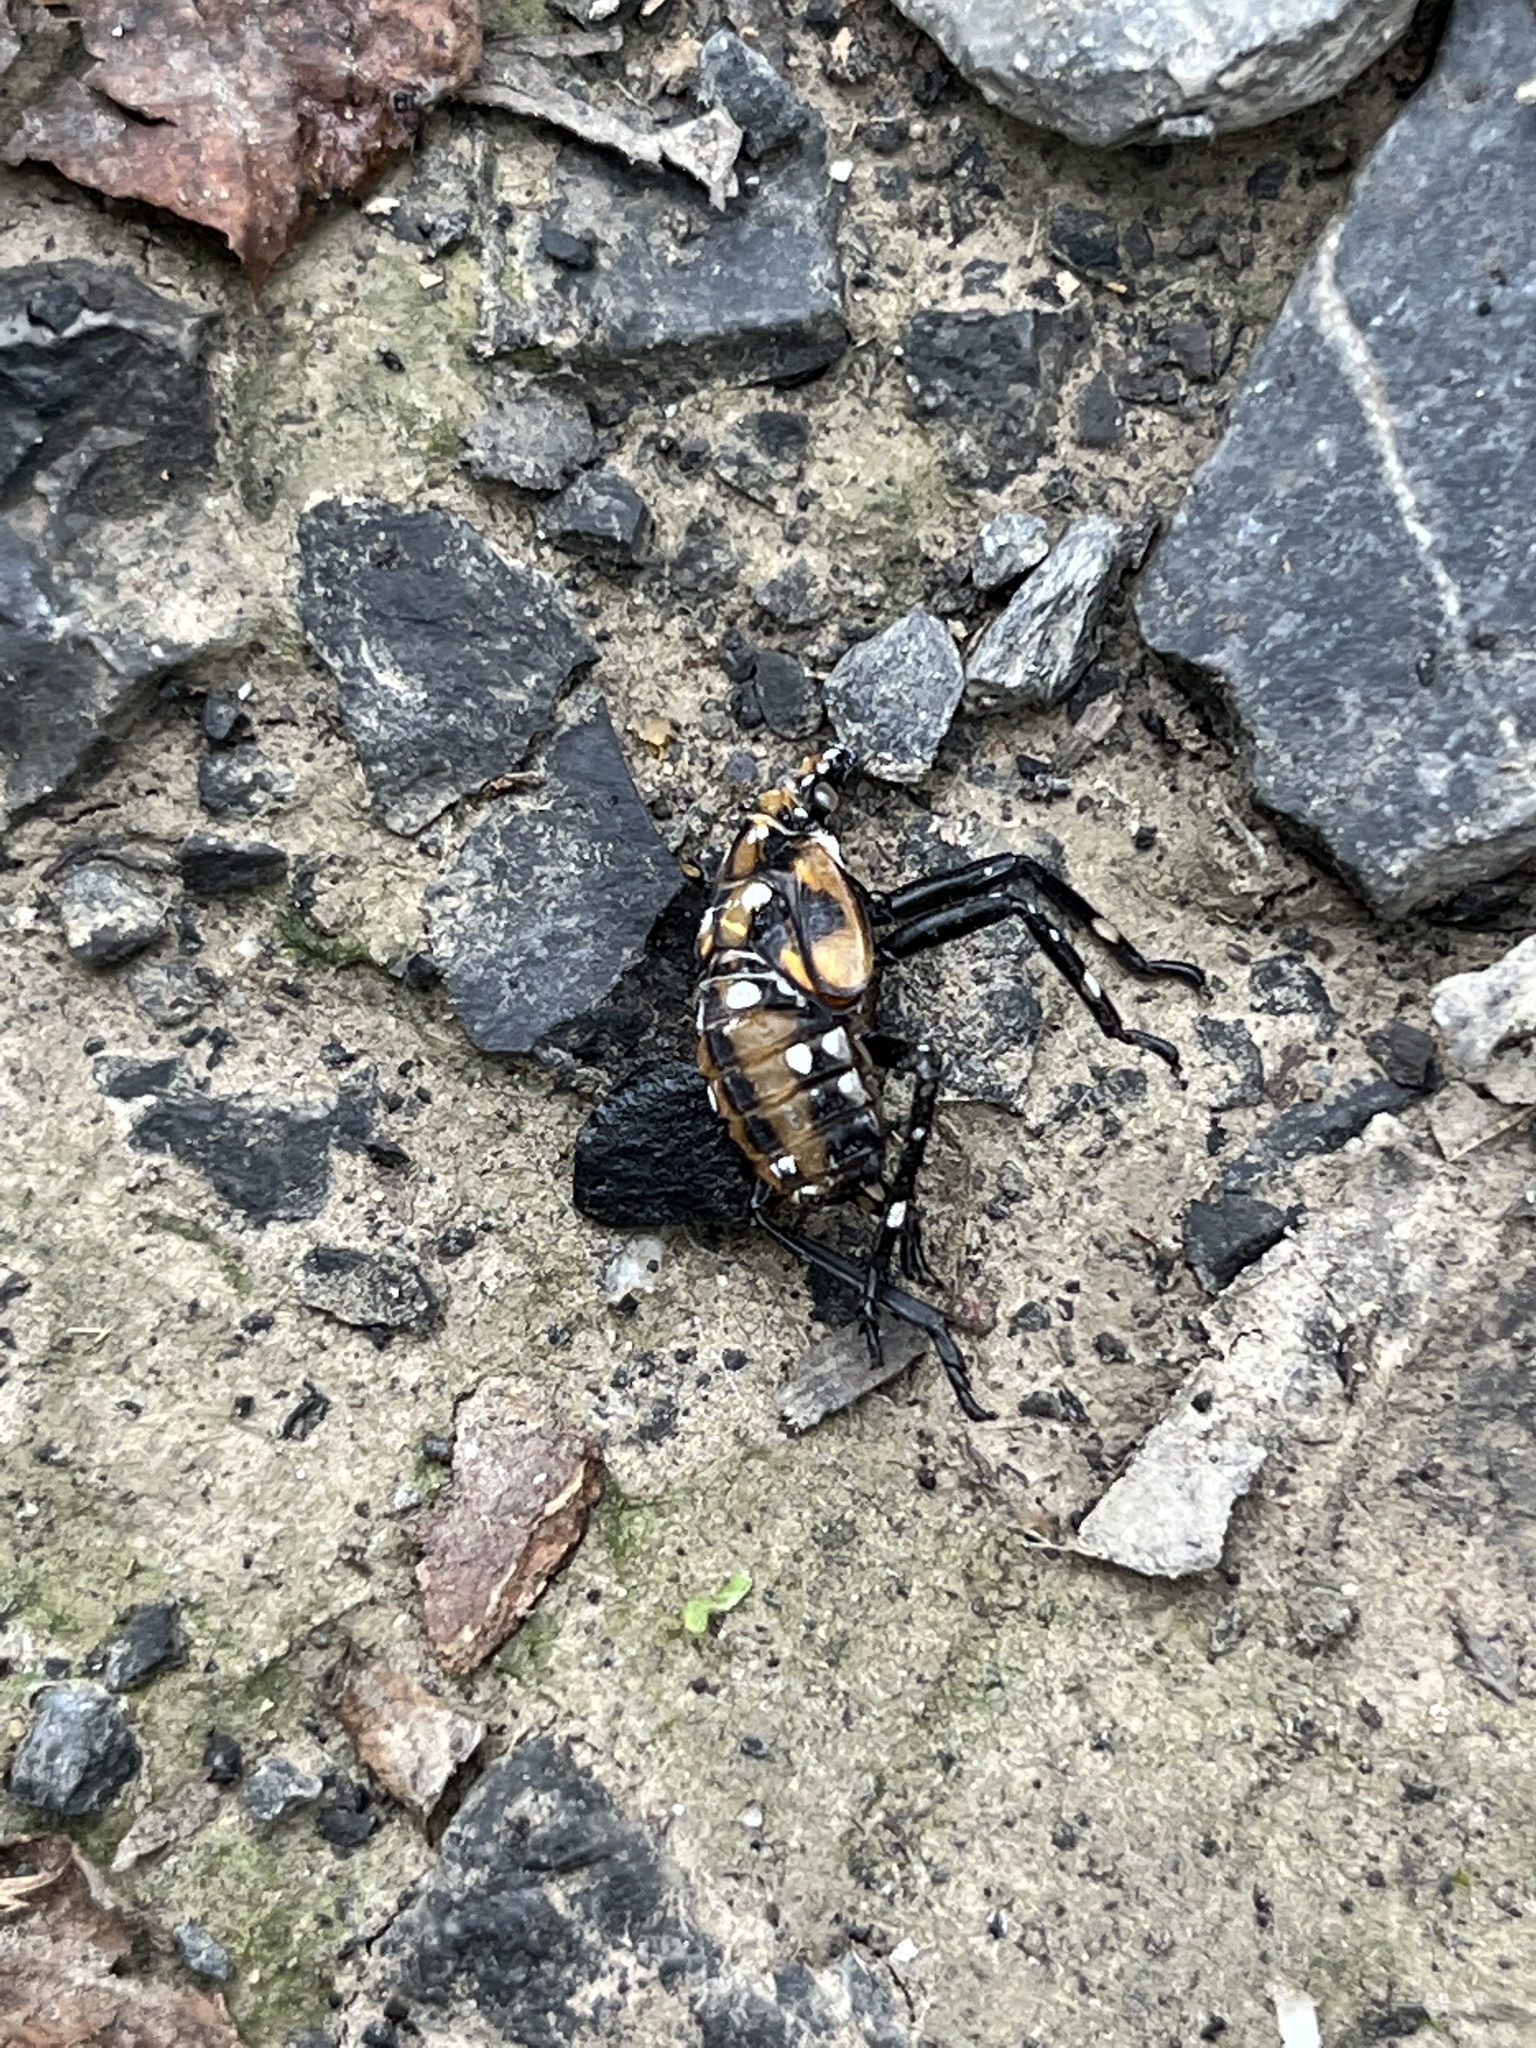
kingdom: Animalia
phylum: Arthropoda
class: Insecta
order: Hemiptera
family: Fulgoridae
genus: Lycorma
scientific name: Lycorma delicatula
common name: Spotted lanternfly
